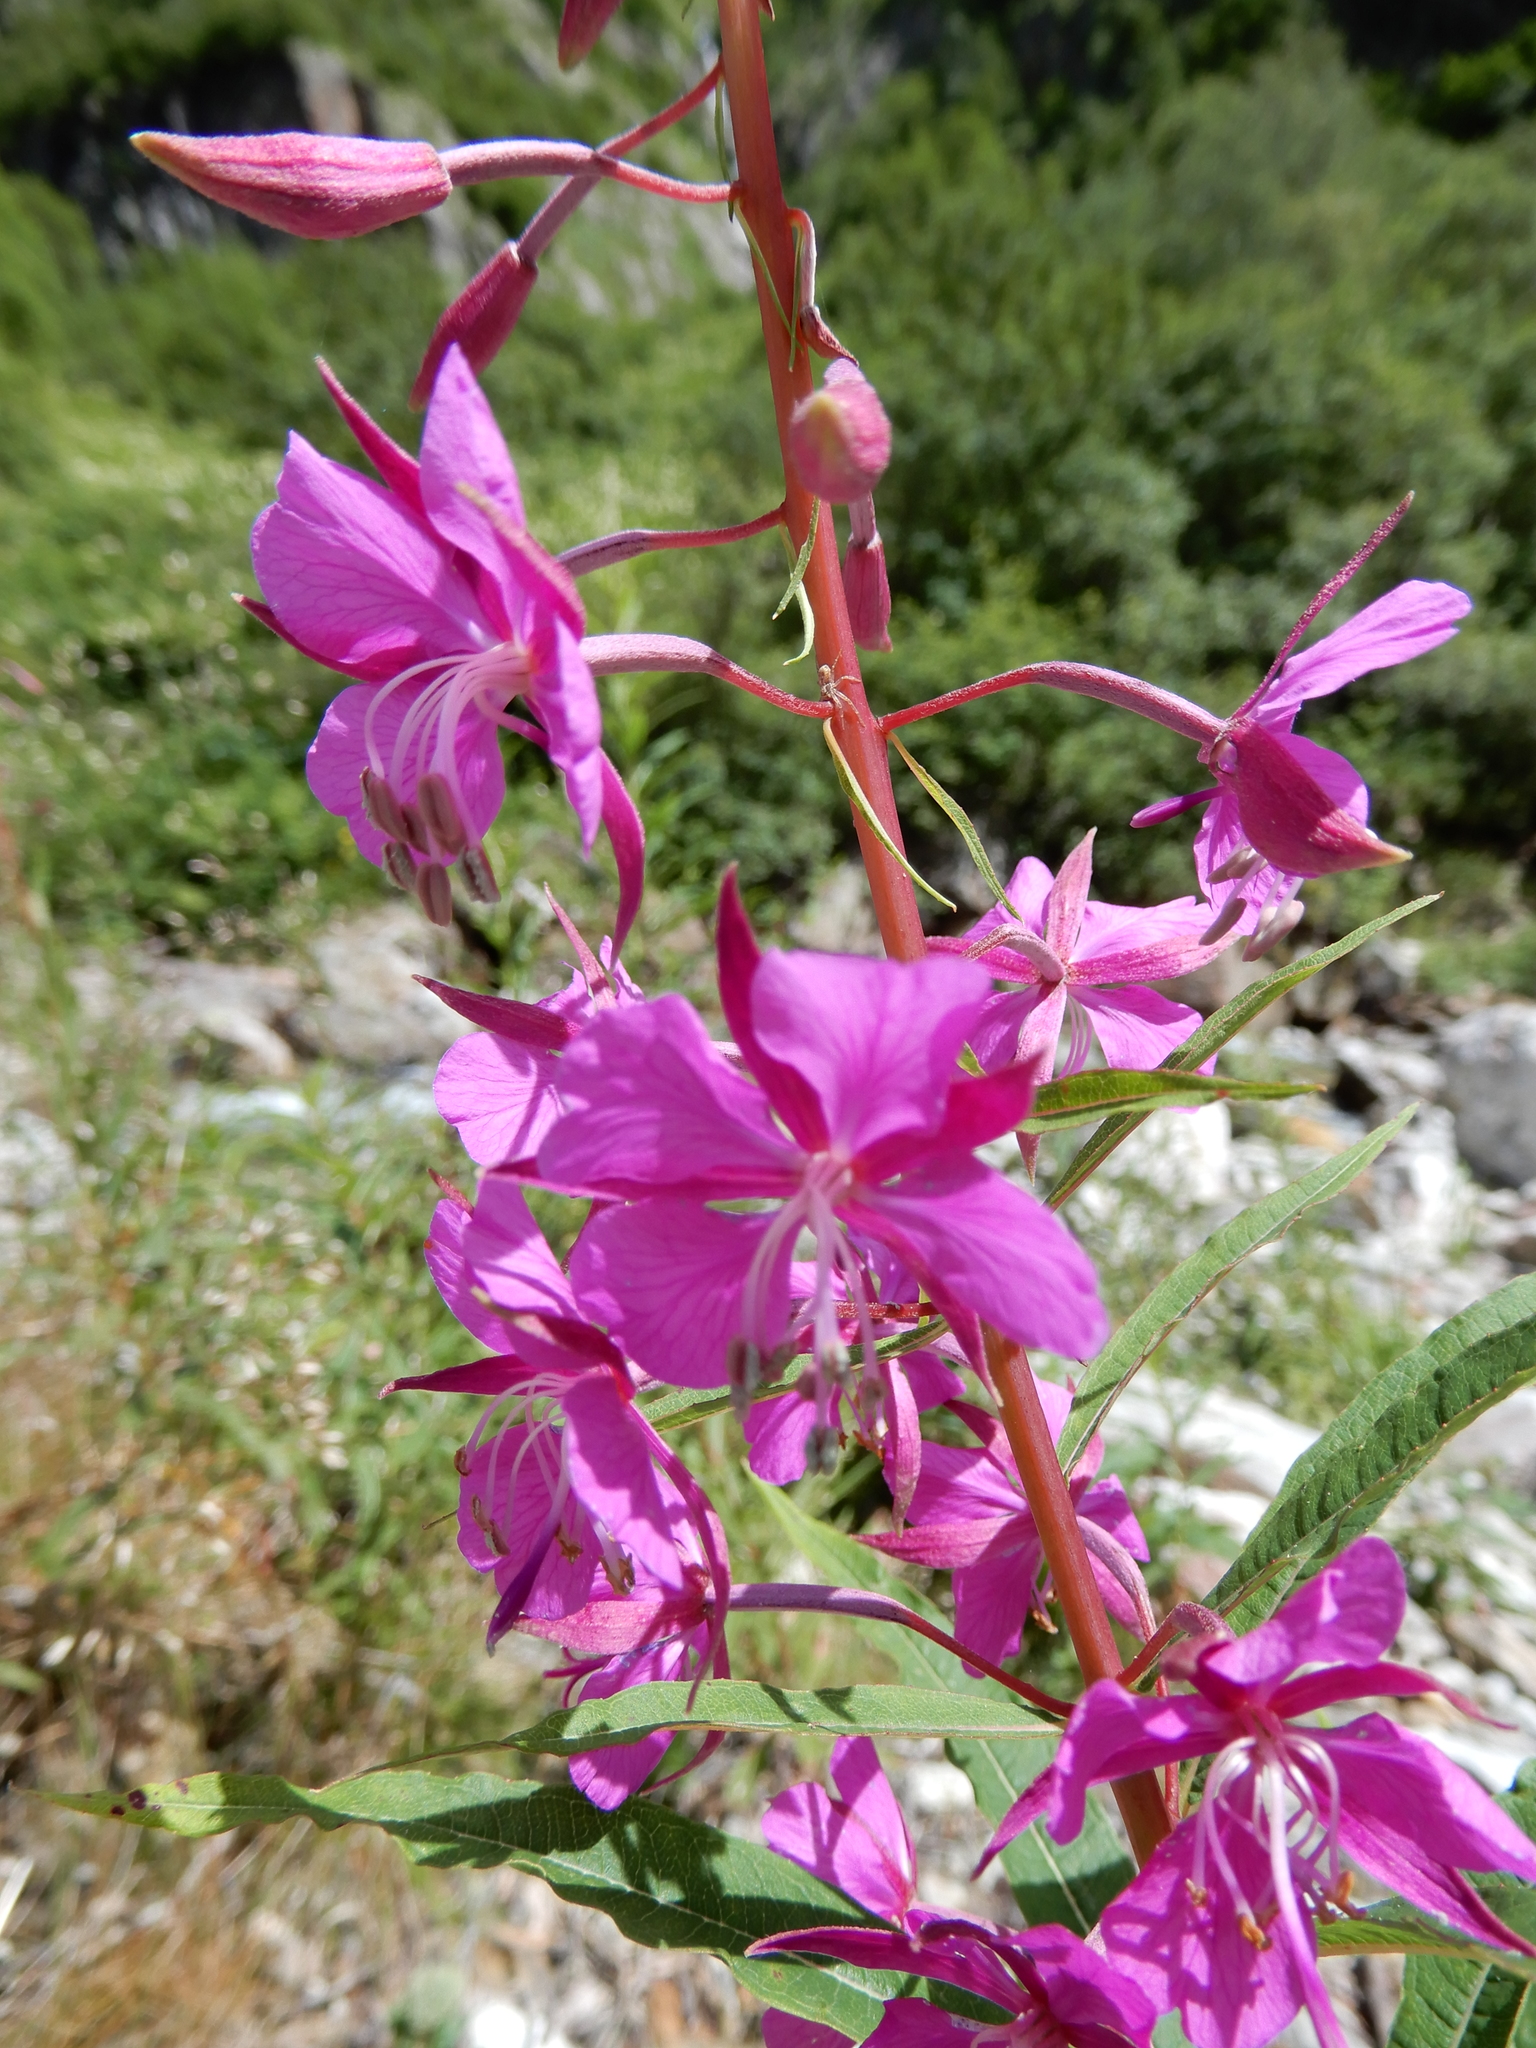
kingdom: Plantae
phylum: Tracheophyta
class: Magnoliopsida
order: Myrtales
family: Onagraceae
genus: Chamaenerion
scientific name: Chamaenerion angustifolium
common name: Fireweed
